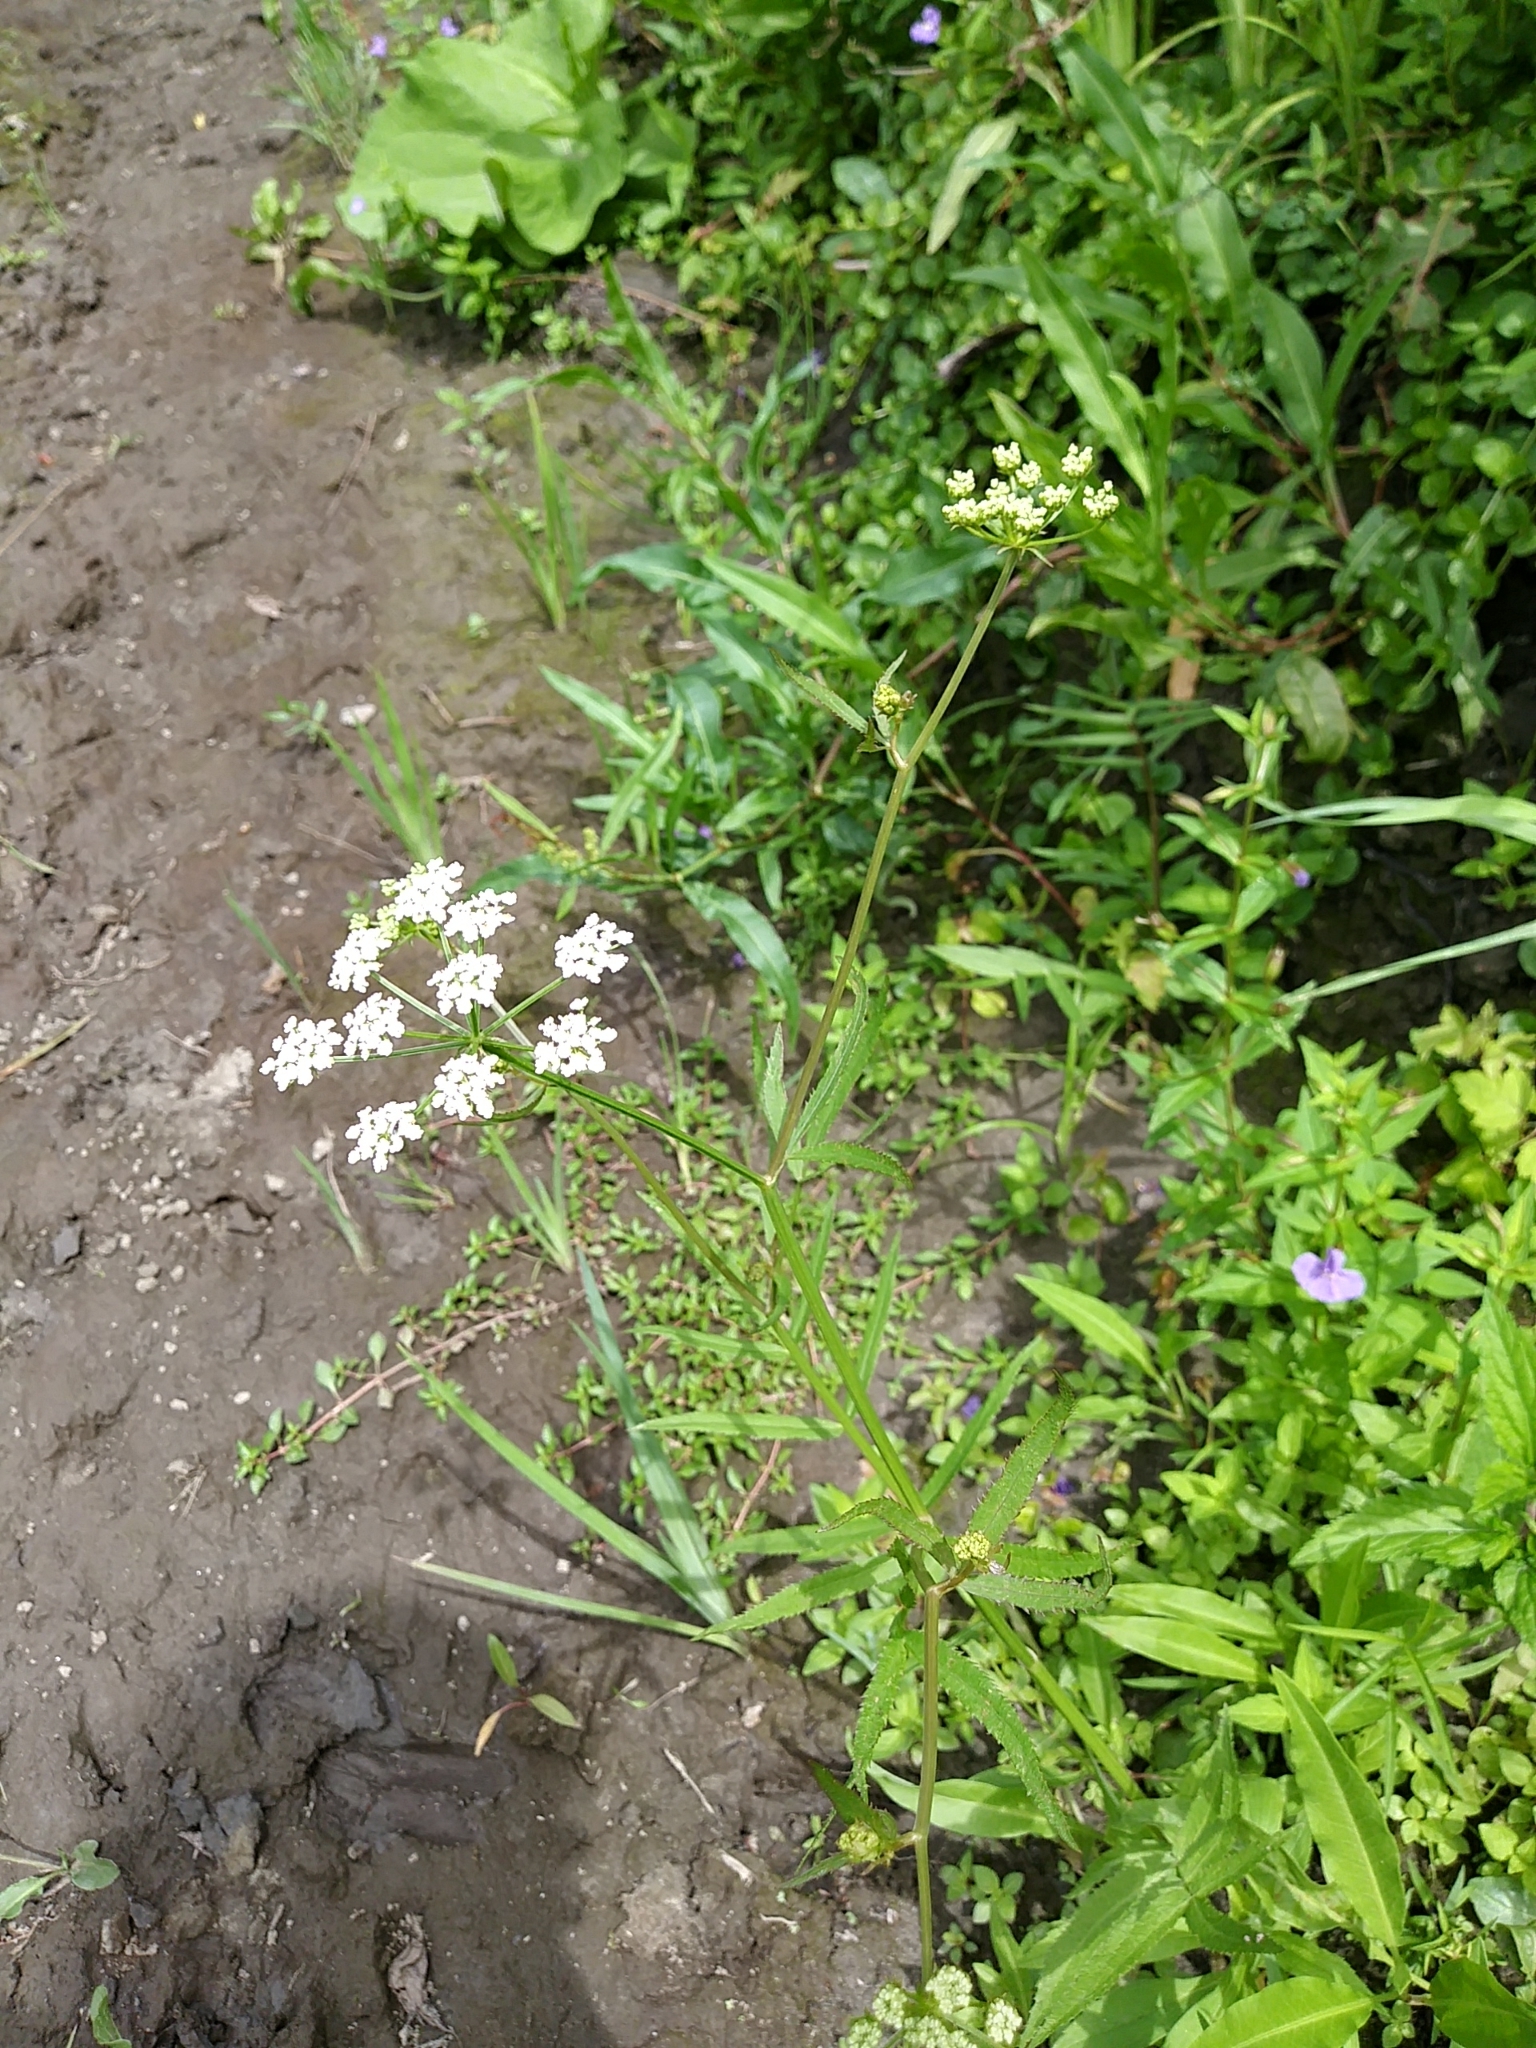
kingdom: Plantae
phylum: Tracheophyta
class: Magnoliopsida
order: Apiales
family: Apiaceae
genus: Sium
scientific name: Sium suave
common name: Hemlock water-parsnip
